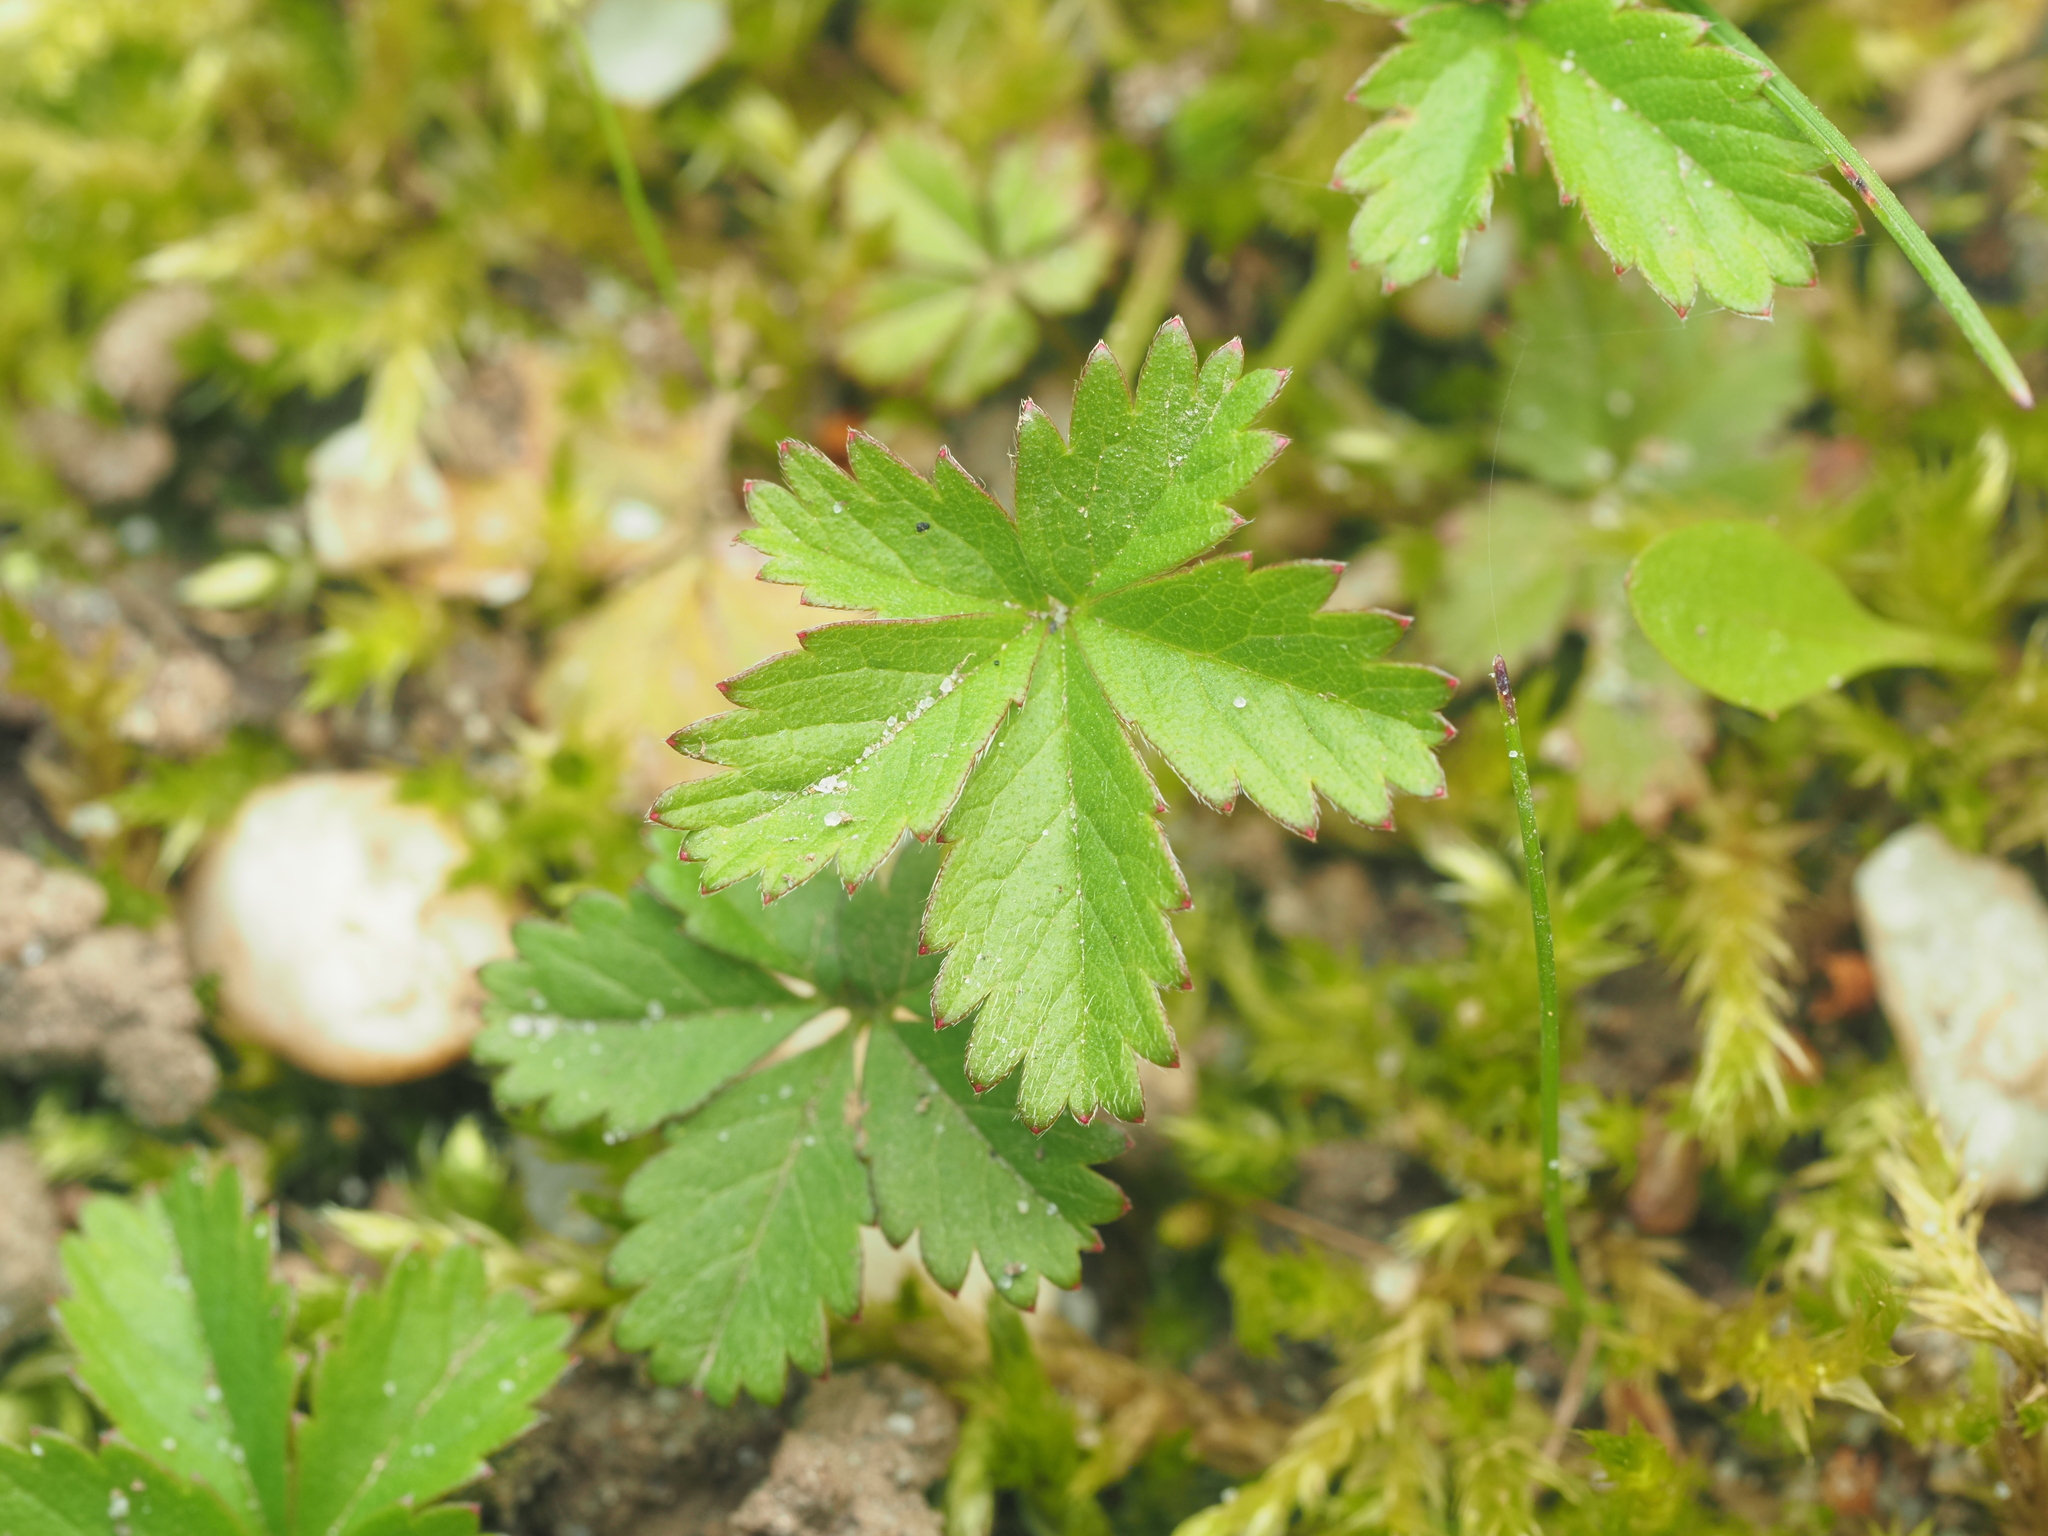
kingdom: Plantae
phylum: Tracheophyta
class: Magnoliopsida
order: Rosales
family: Rosaceae
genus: Potentilla
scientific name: Potentilla reptans
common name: Creeping cinquefoil
